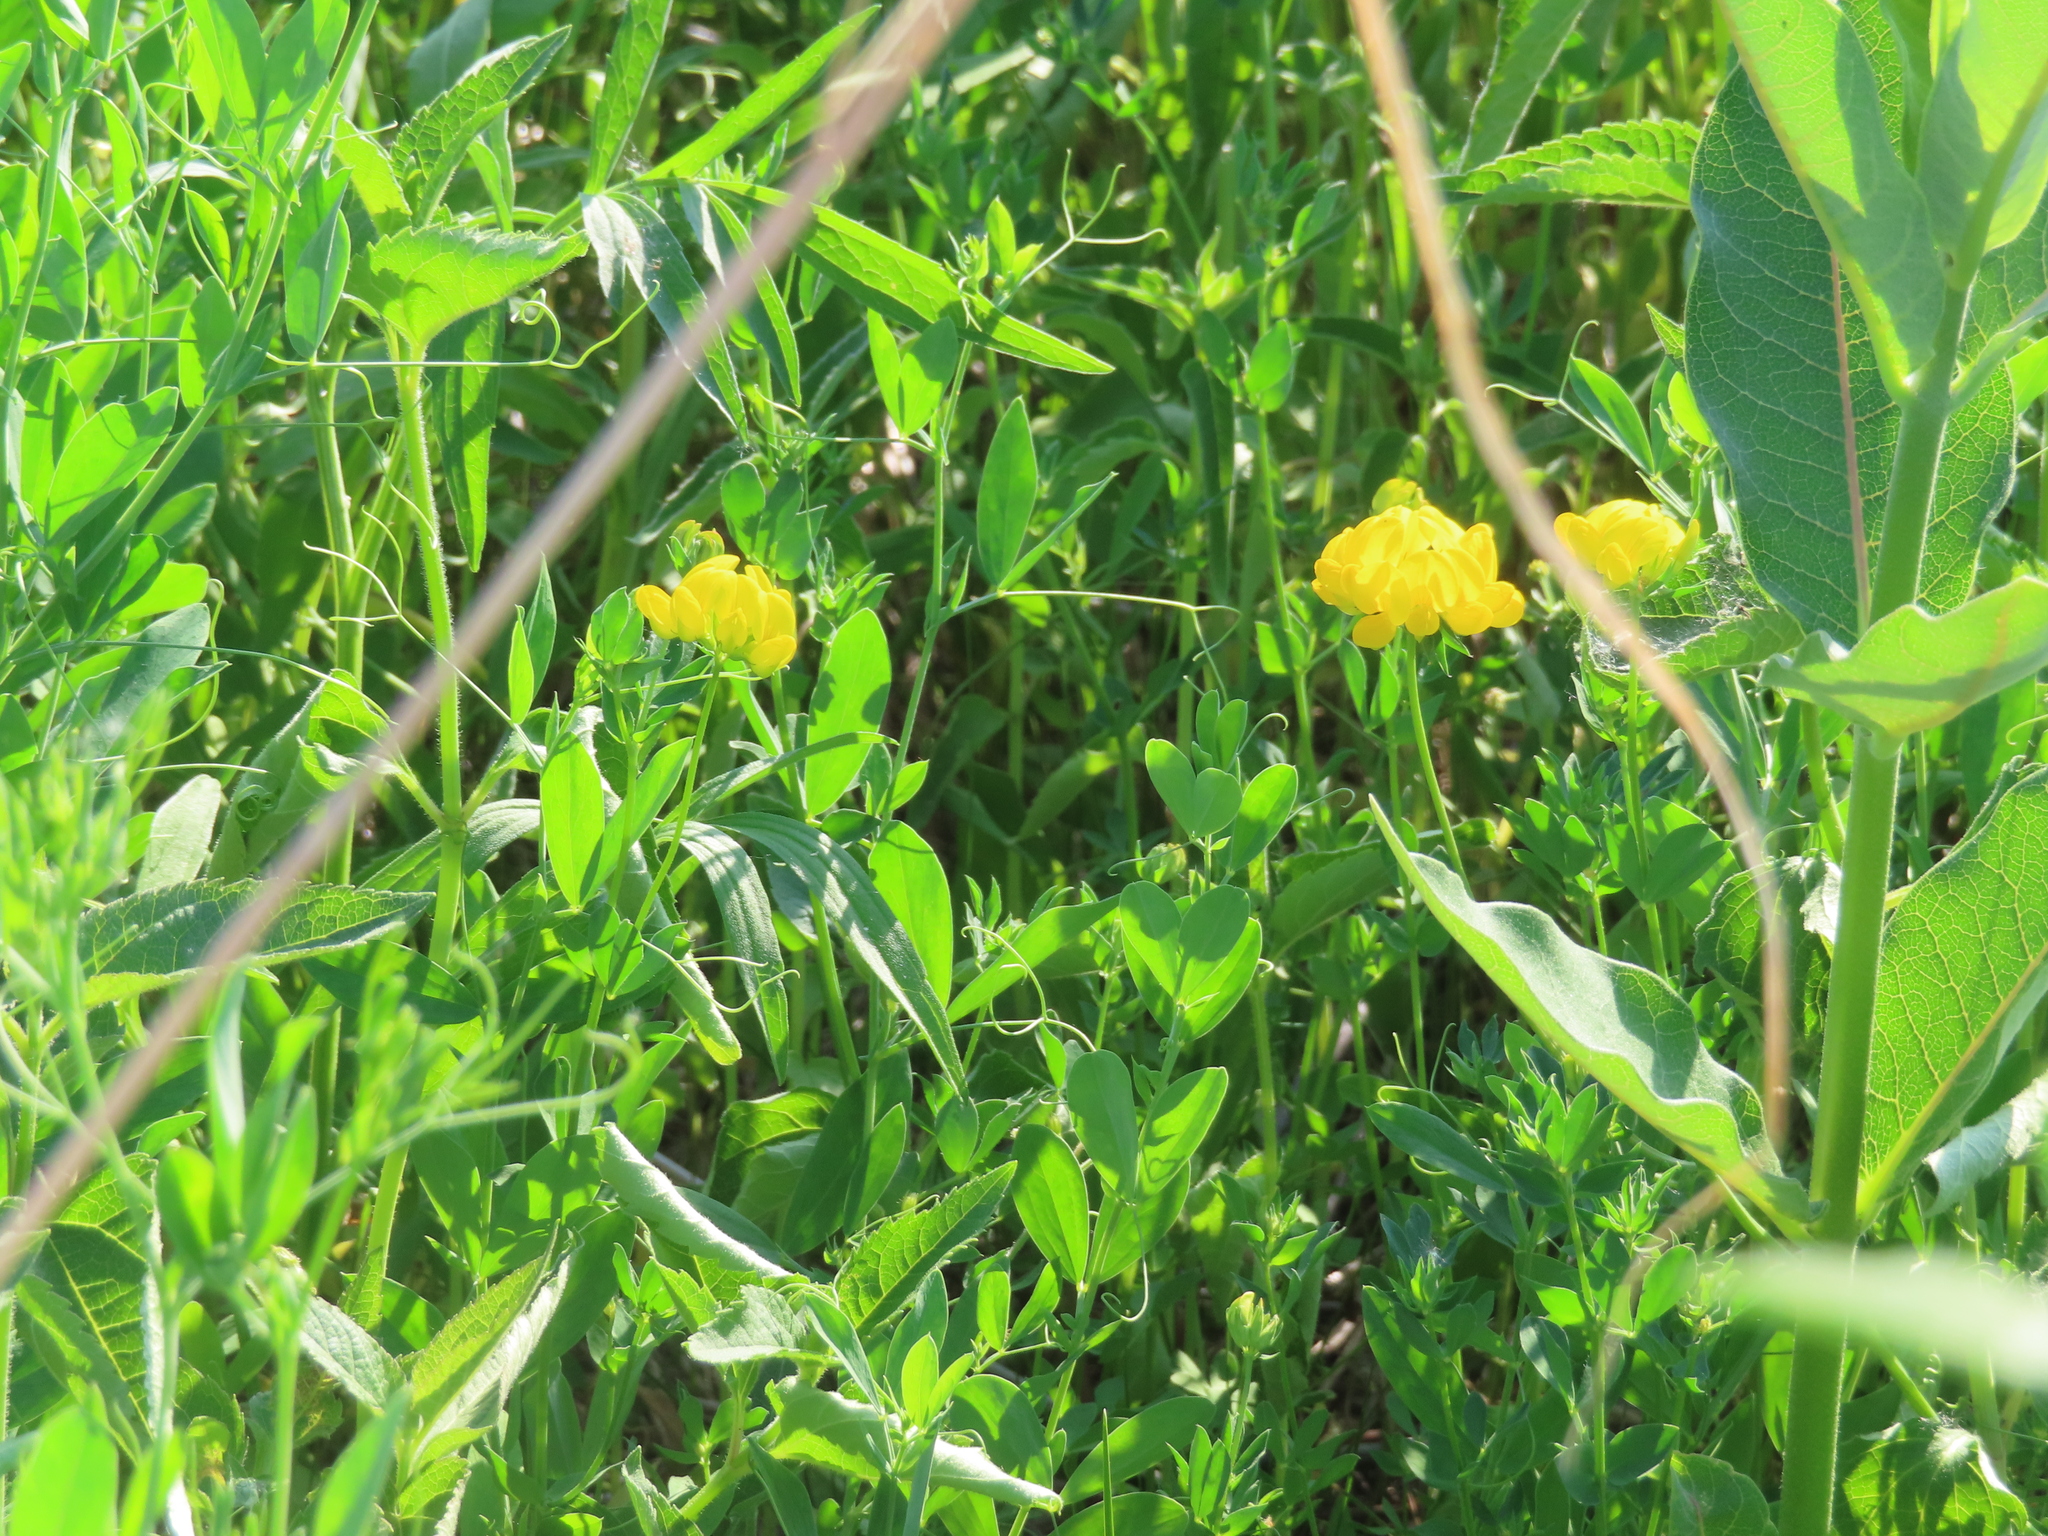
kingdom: Plantae
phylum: Tracheophyta
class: Magnoliopsida
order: Fabales
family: Fabaceae
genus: Lotus
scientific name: Lotus corniculatus
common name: Common bird's-foot-trefoil
